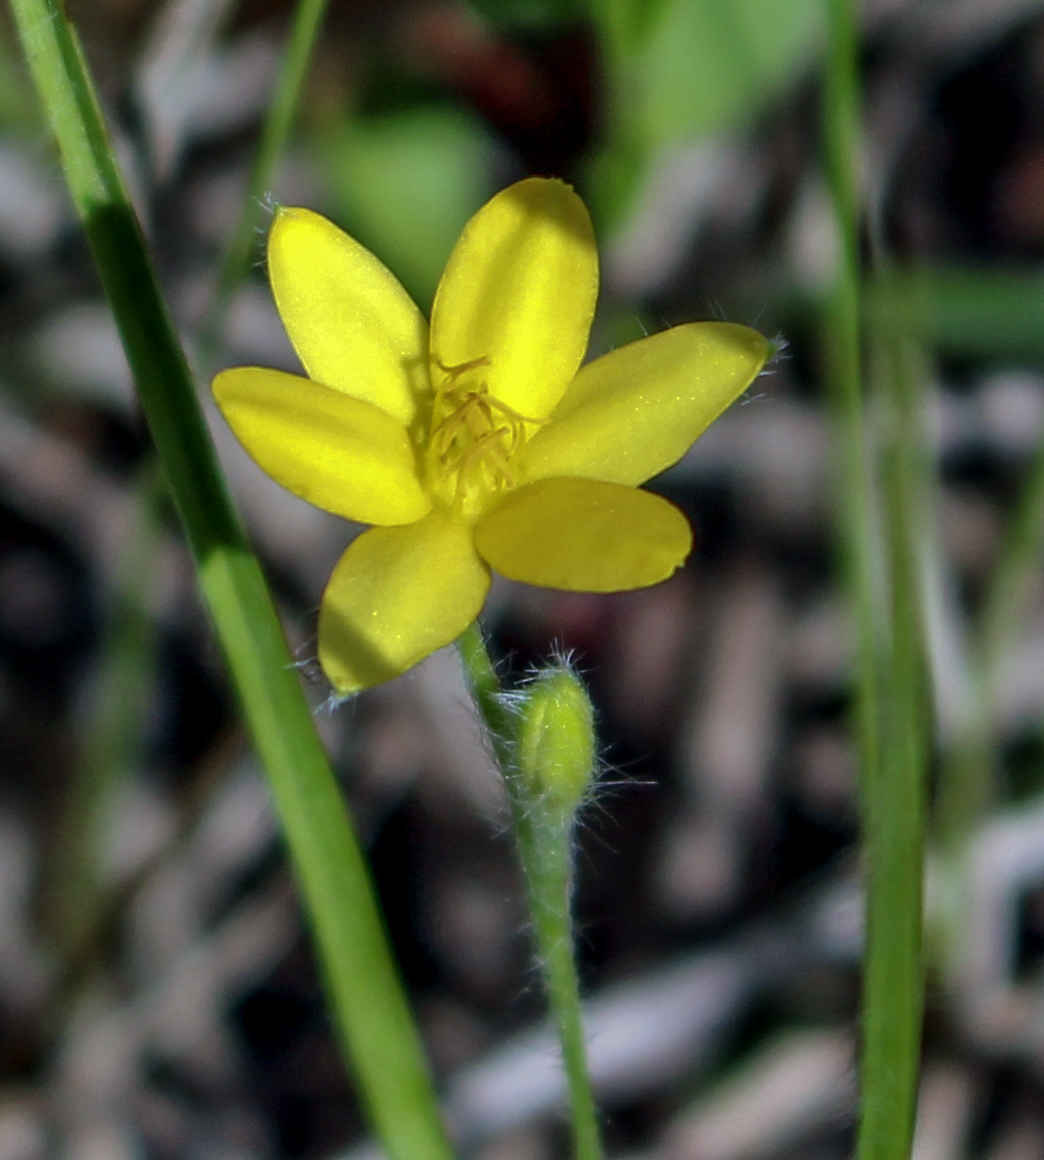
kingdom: Plantae
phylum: Tracheophyta
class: Liliopsida
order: Asparagales
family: Hypoxidaceae
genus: Hypoxis
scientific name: Hypoxis hirsuta
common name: Common goldstar
